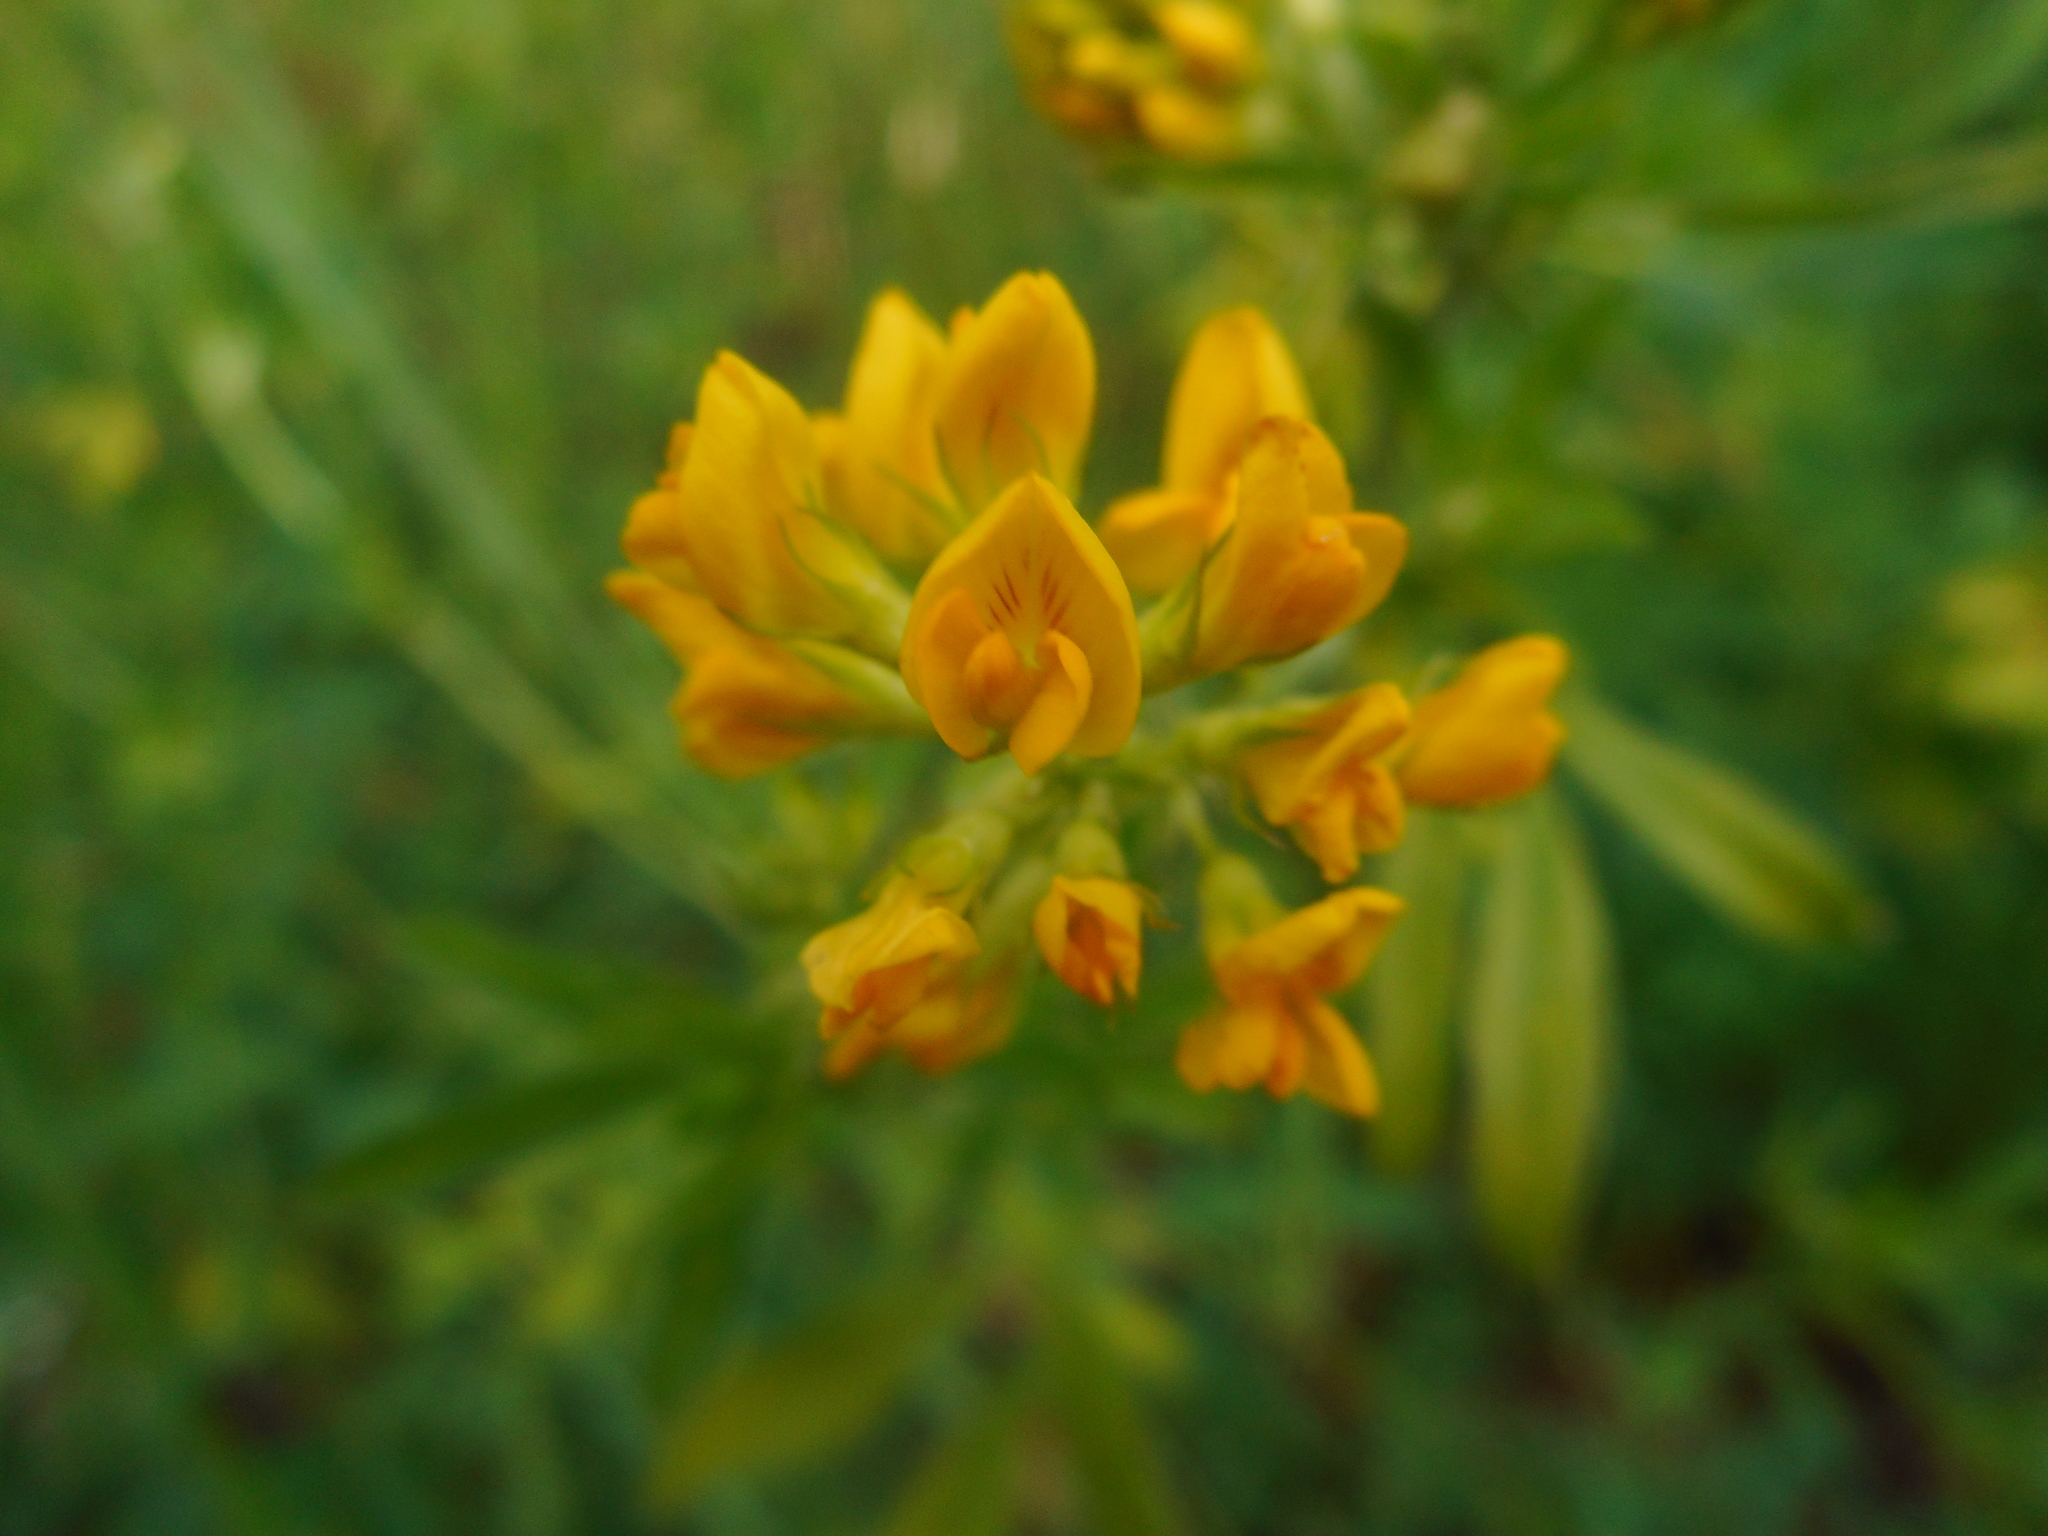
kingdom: Plantae
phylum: Tracheophyta
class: Magnoliopsida
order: Fabales
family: Fabaceae
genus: Medicago
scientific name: Medicago falcata
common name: Sickle medick
